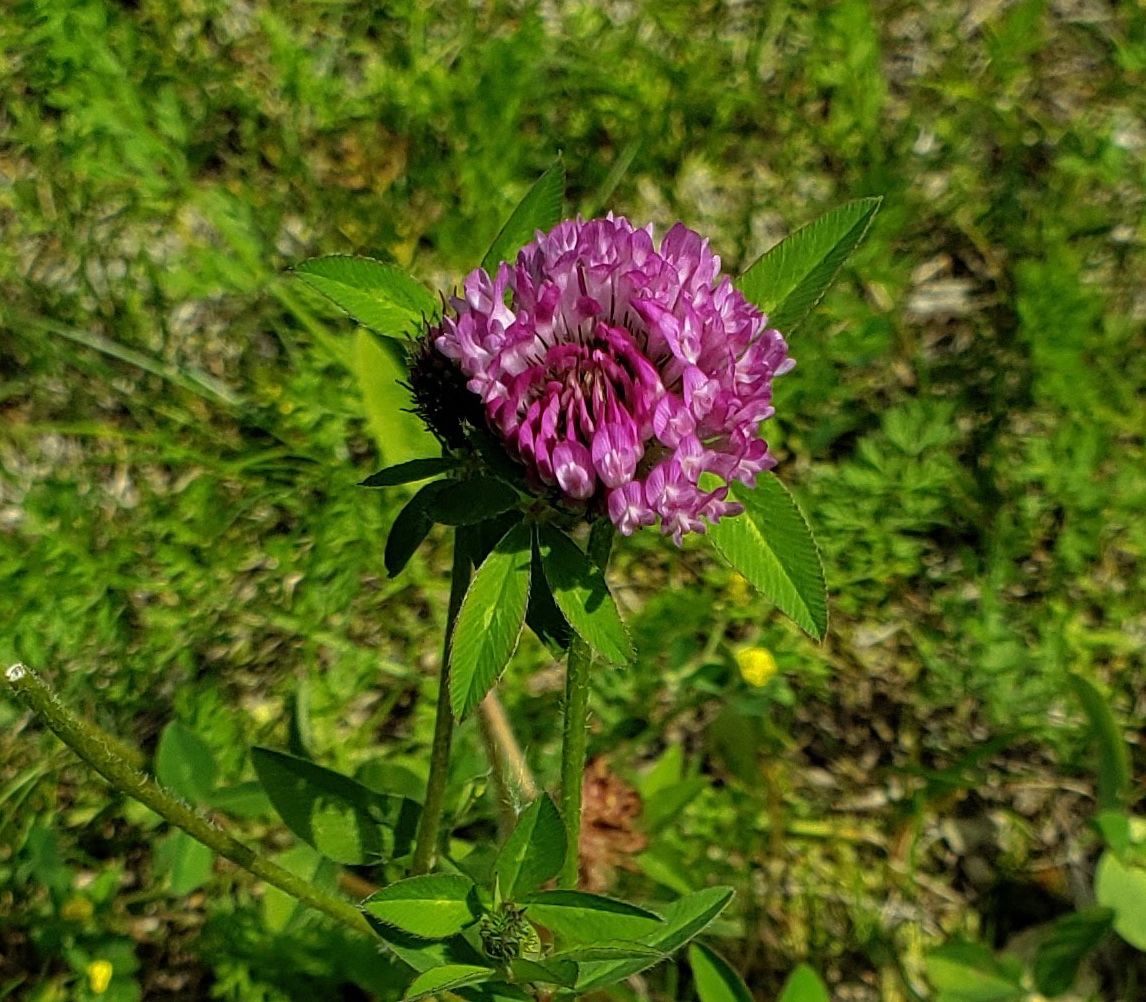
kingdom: Plantae
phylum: Tracheophyta
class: Magnoliopsida
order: Fabales
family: Fabaceae
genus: Trifolium
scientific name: Trifolium pratense
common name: Red clover
